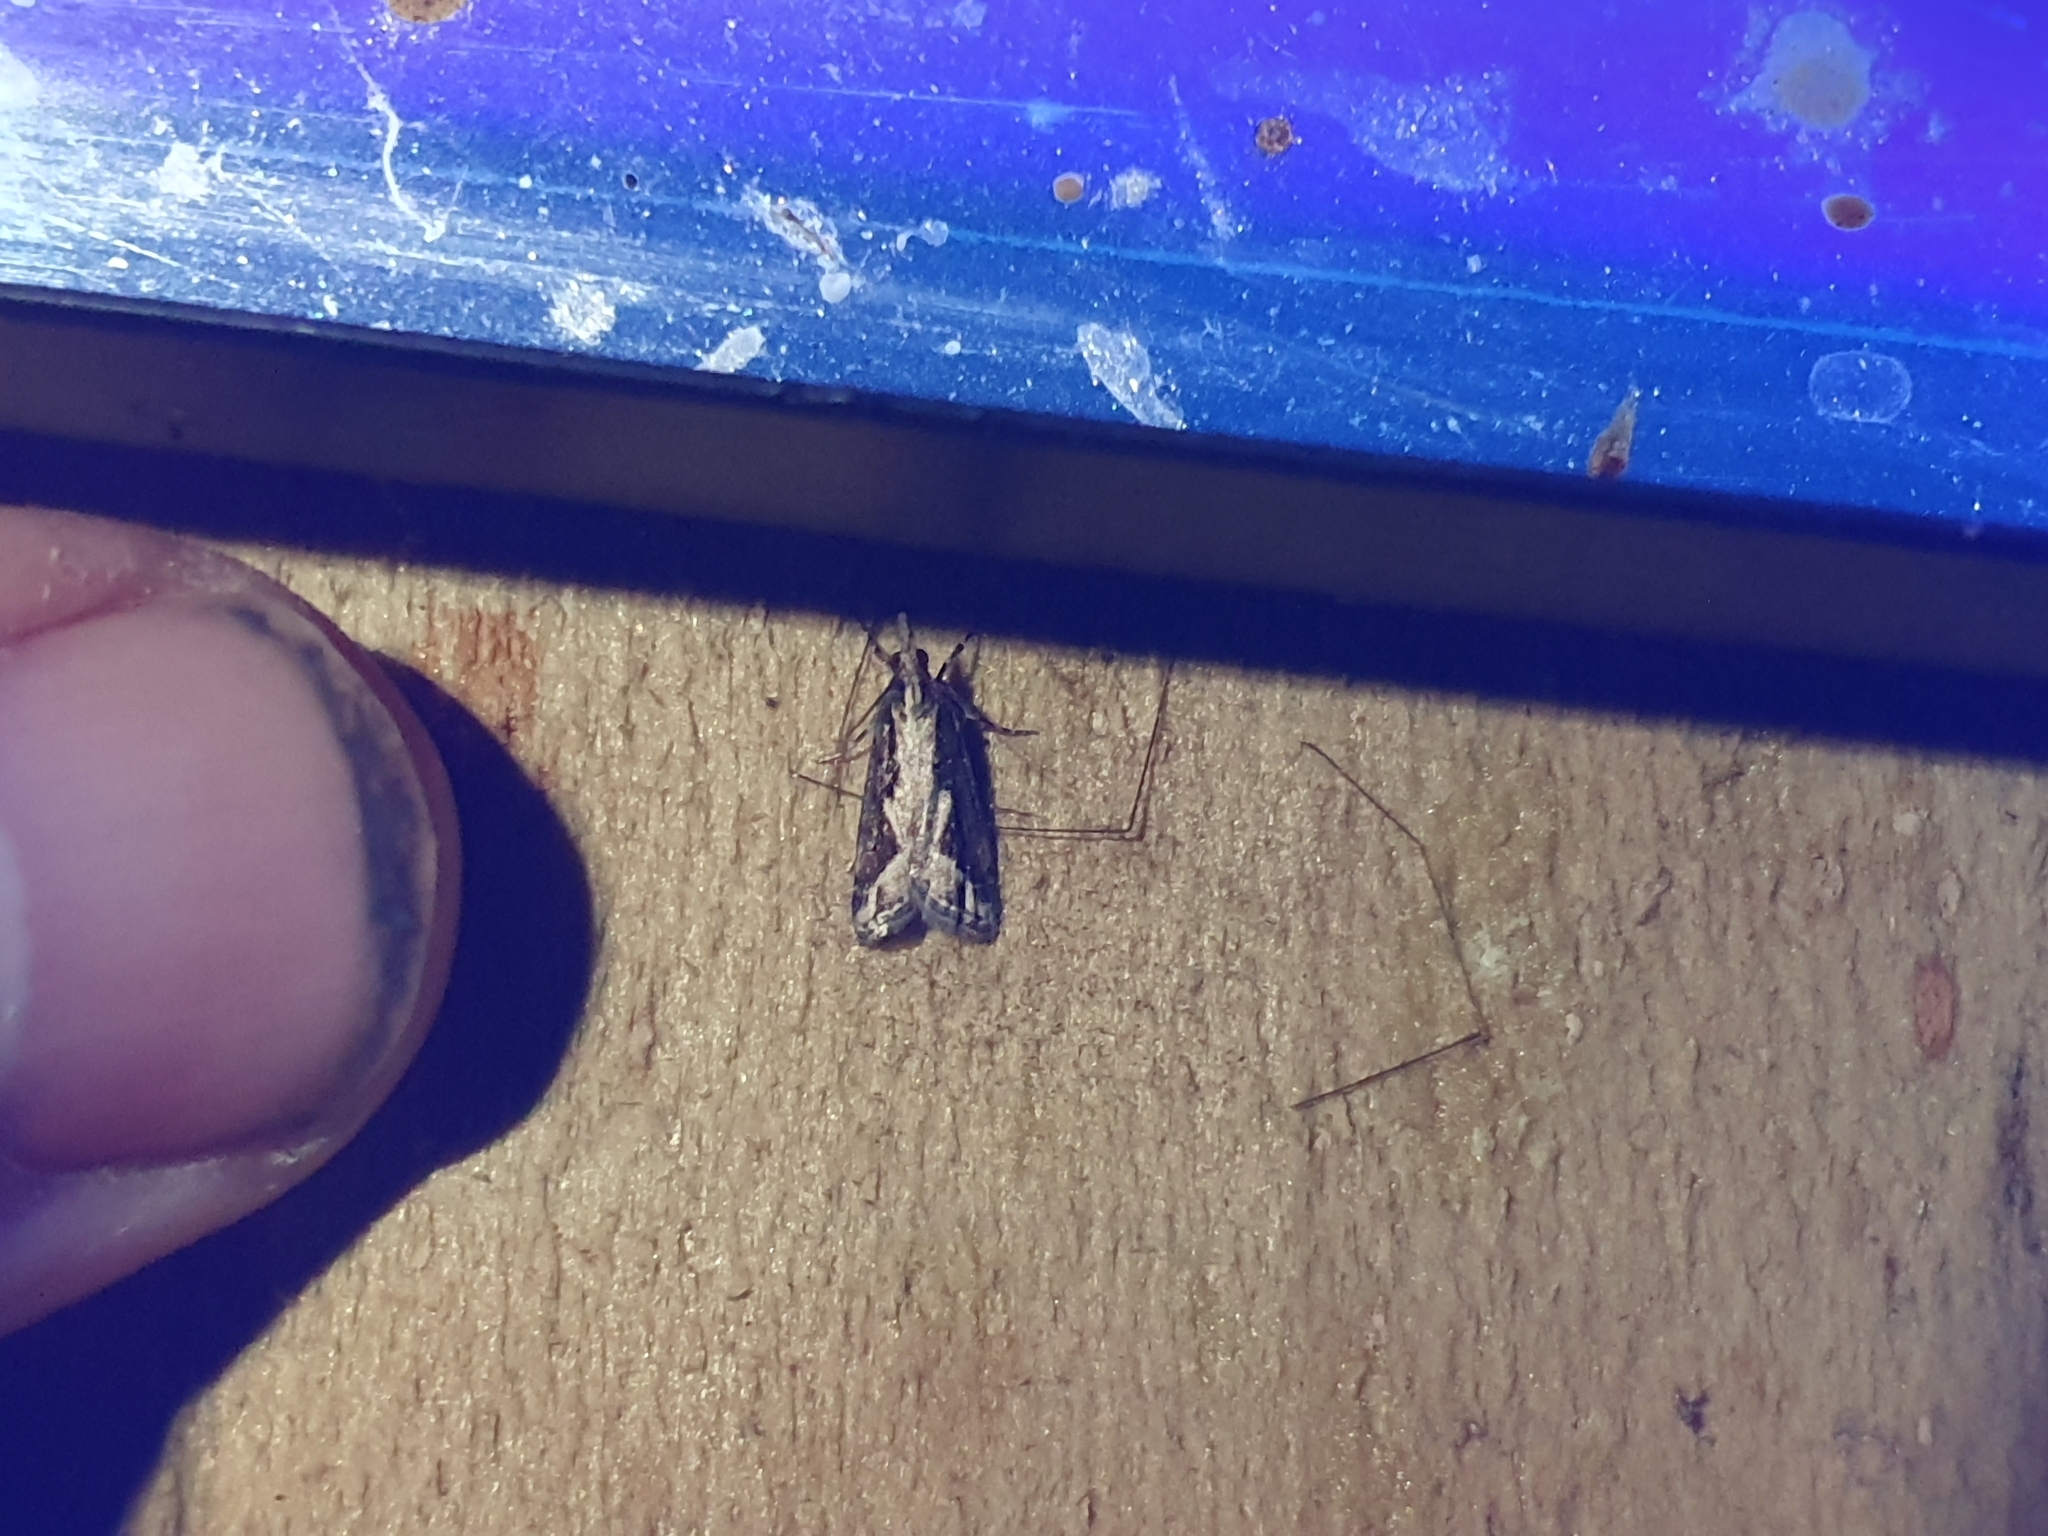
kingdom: Animalia
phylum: Arthropoda
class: Insecta
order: Lepidoptera
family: Crambidae
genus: Eudonia
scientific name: Eudonia steropaea
